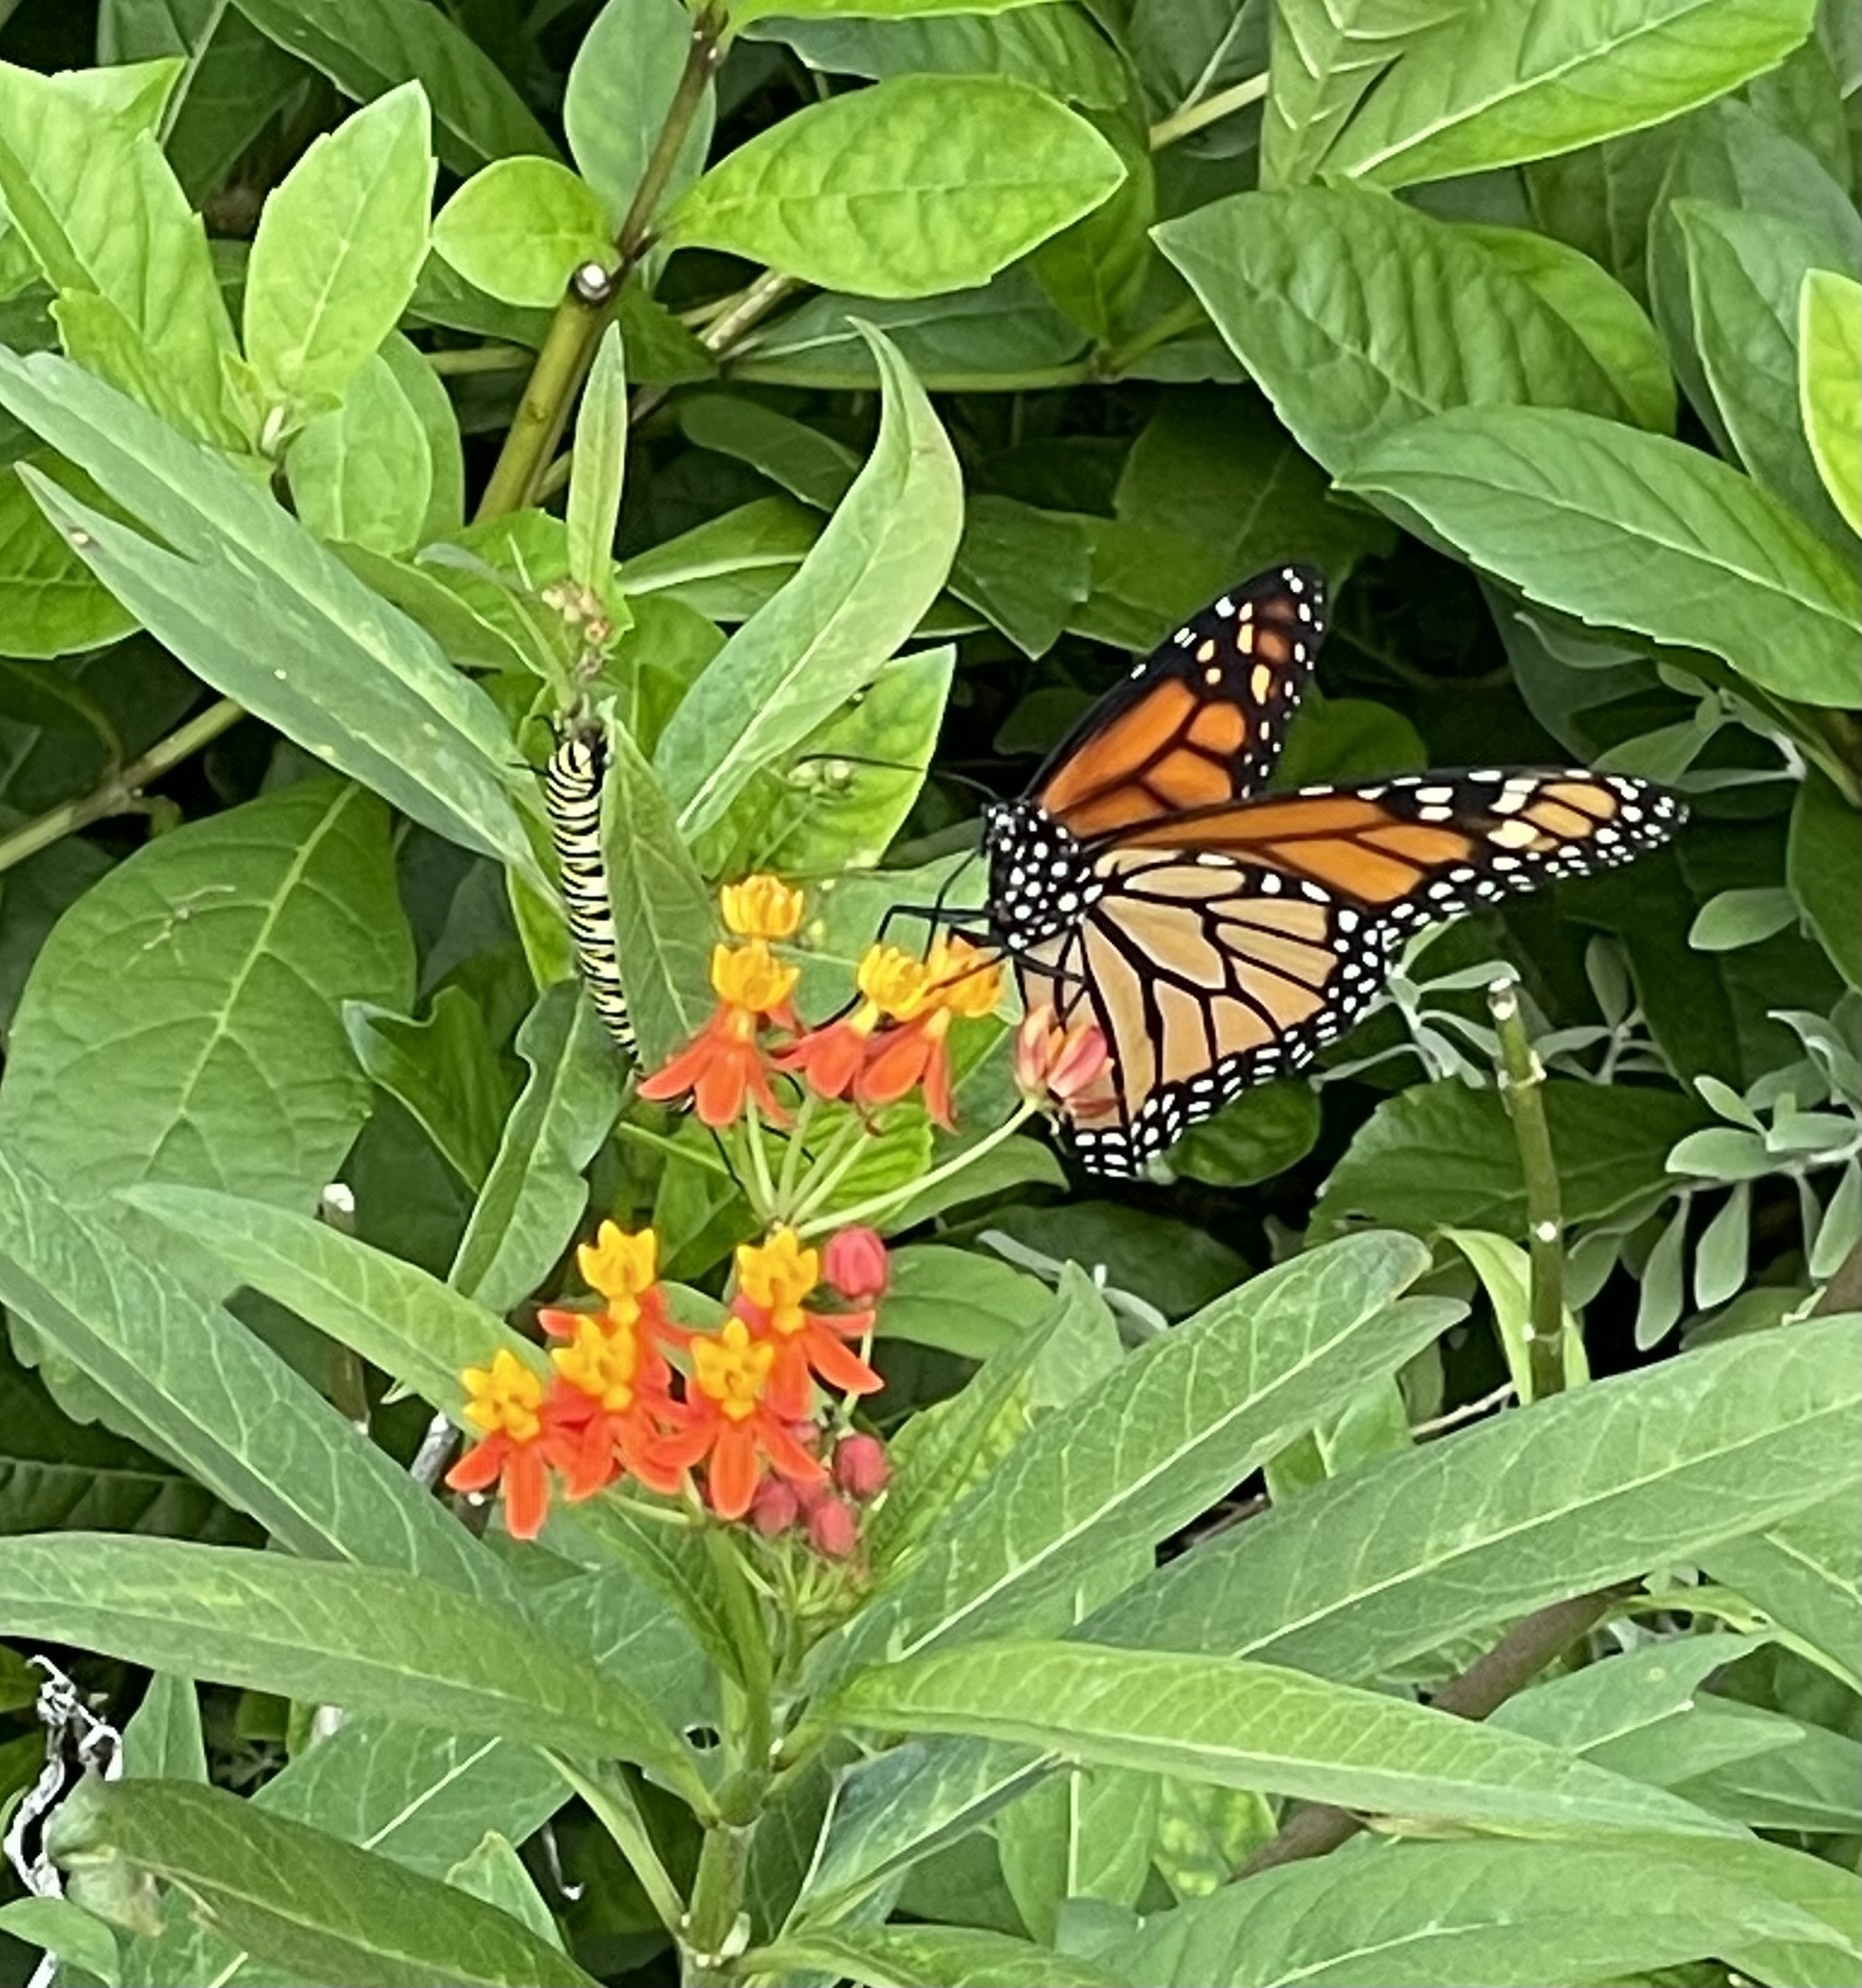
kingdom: Animalia
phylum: Arthropoda
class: Insecta
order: Lepidoptera
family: Nymphalidae
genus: Danaus
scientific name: Danaus plexippus
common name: Monarch
